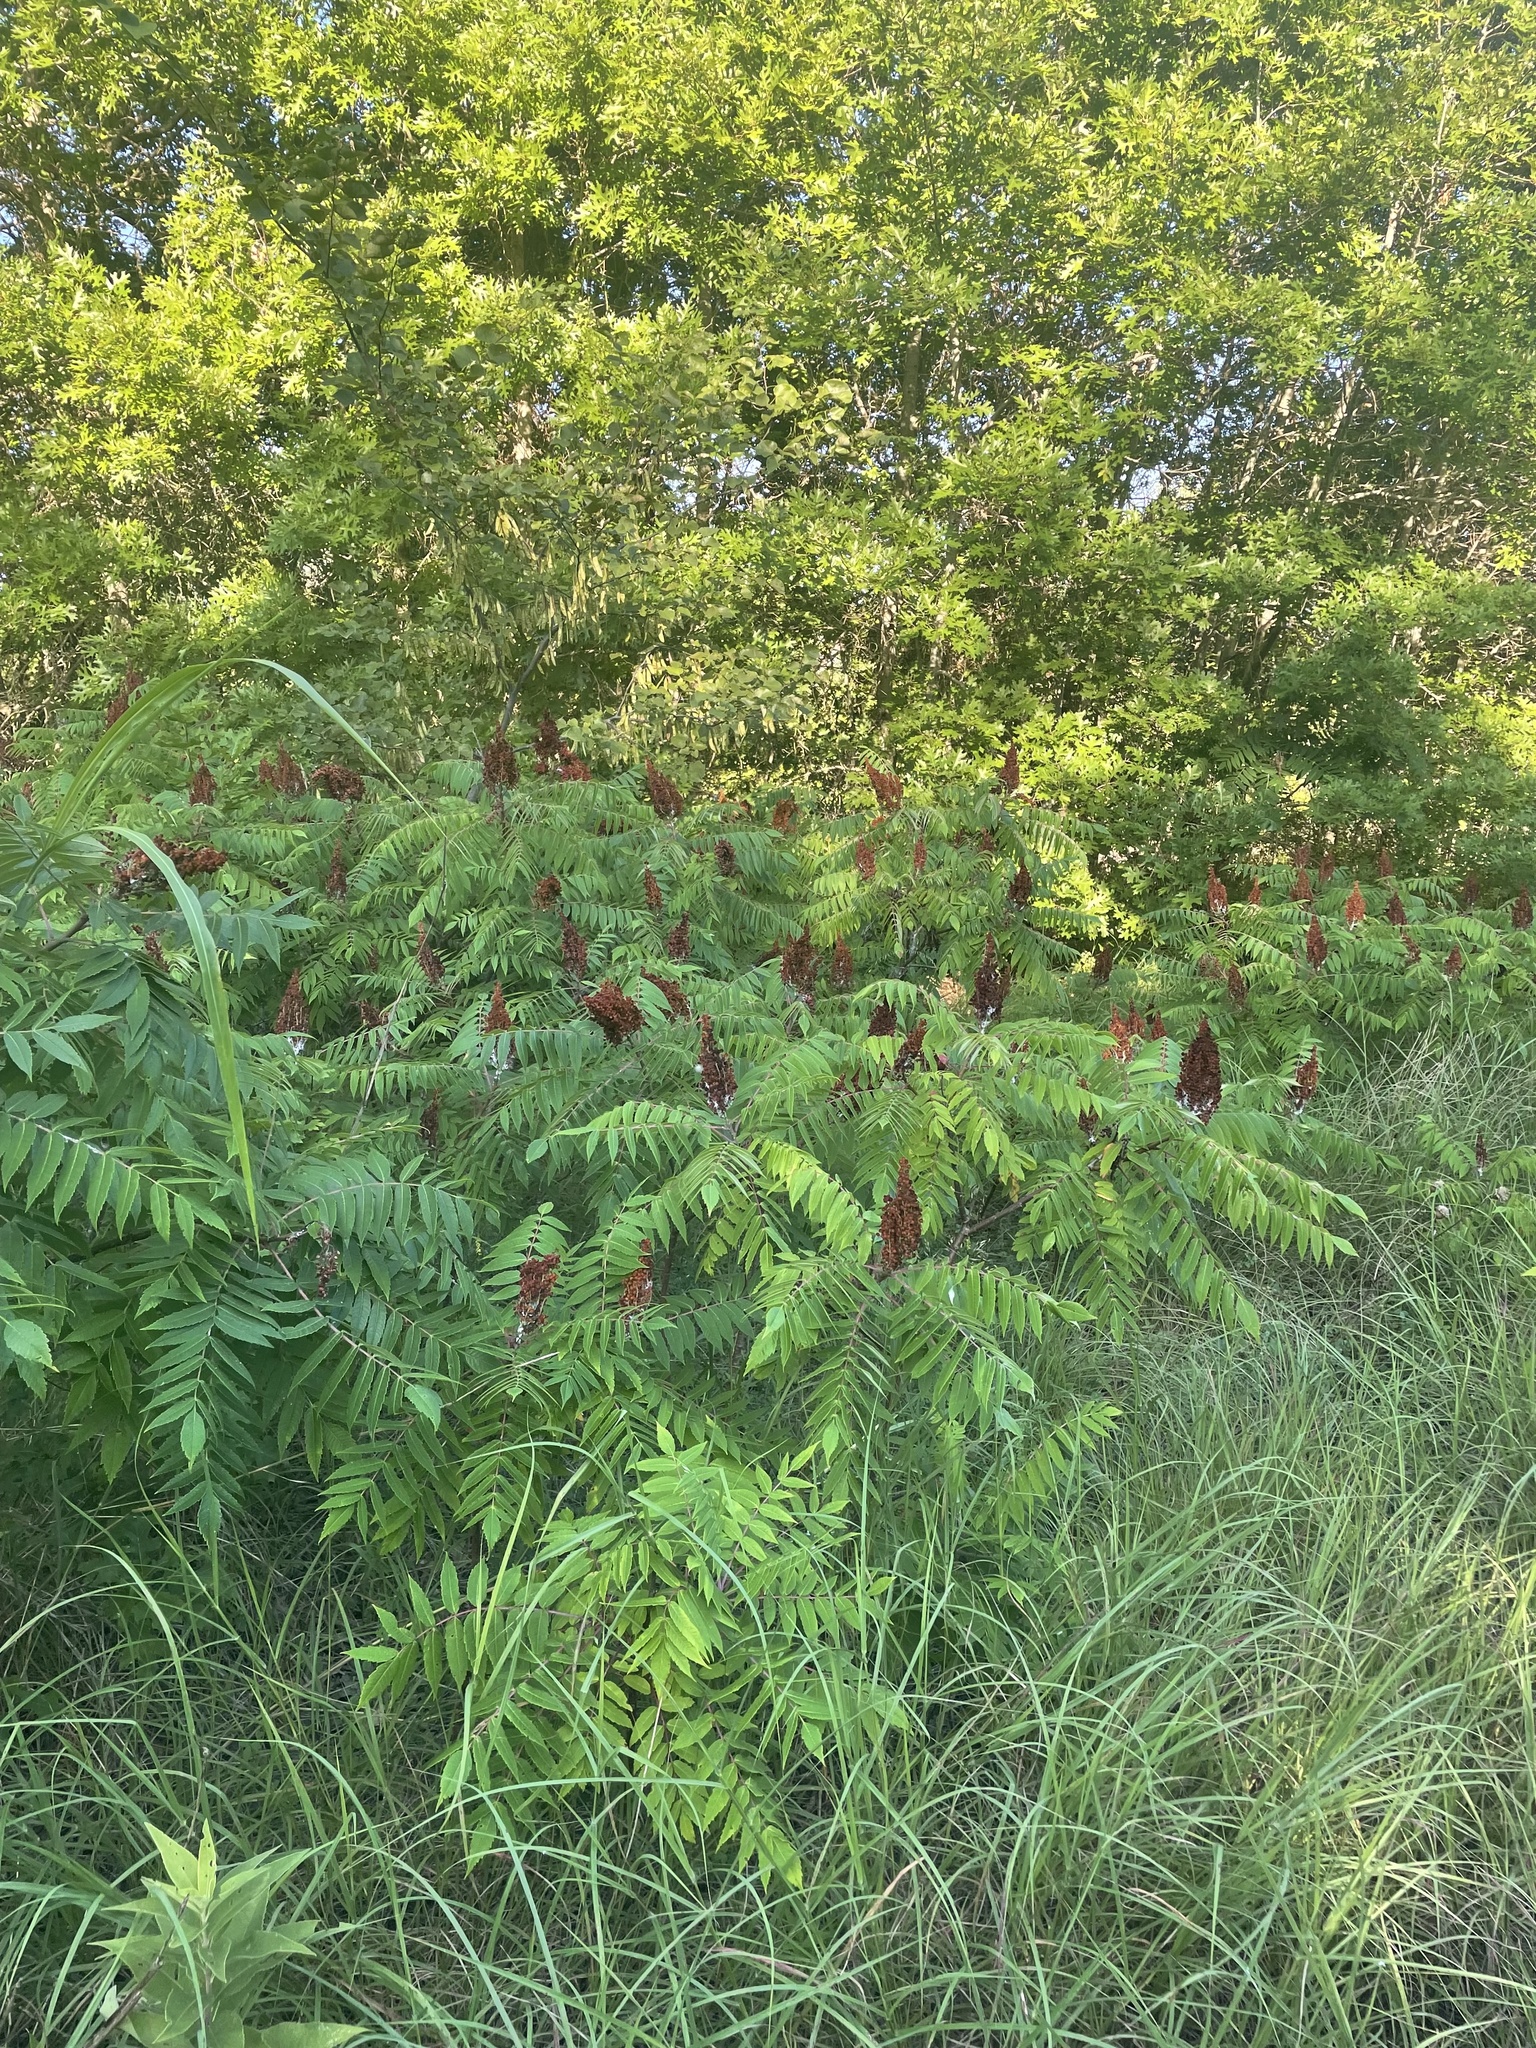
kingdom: Plantae
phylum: Tracheophyta
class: Magnoliopsida
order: Sapindales
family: Anacardiaceae
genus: Rhus
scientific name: Rhus glabra
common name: Scarlet sumac
